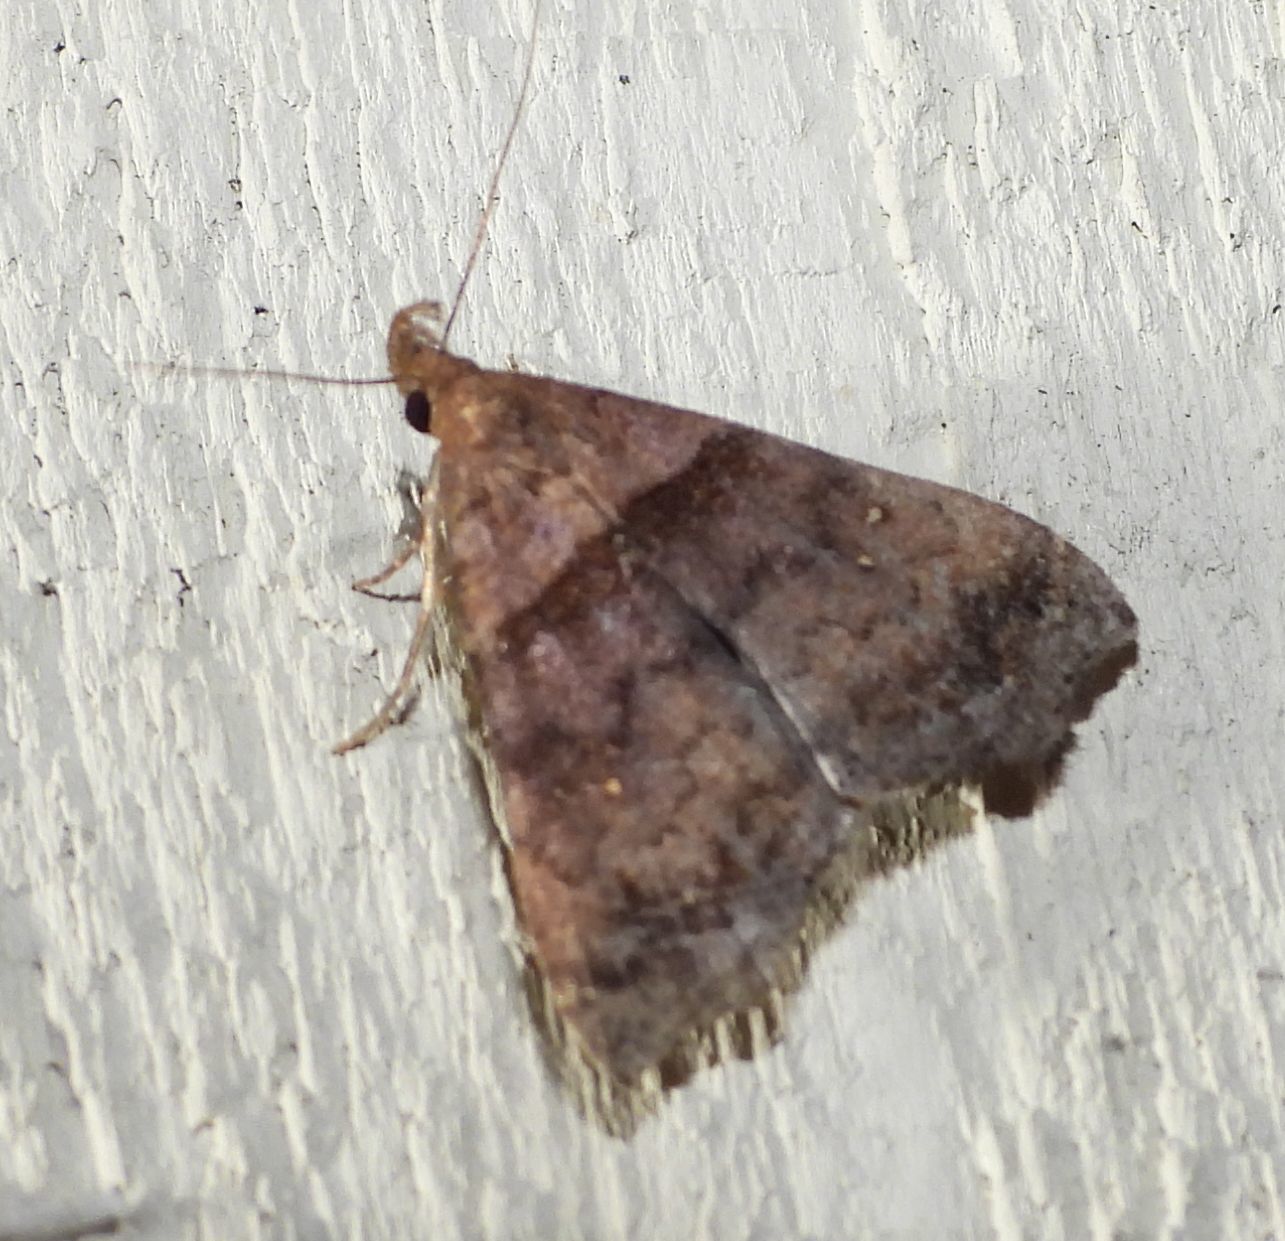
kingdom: Animalia
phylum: Arthropoda
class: Insecta
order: Lepidoptera
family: Erebidae
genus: Lascoria
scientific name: Lascoria ambigualis
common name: Ambiguous moth
